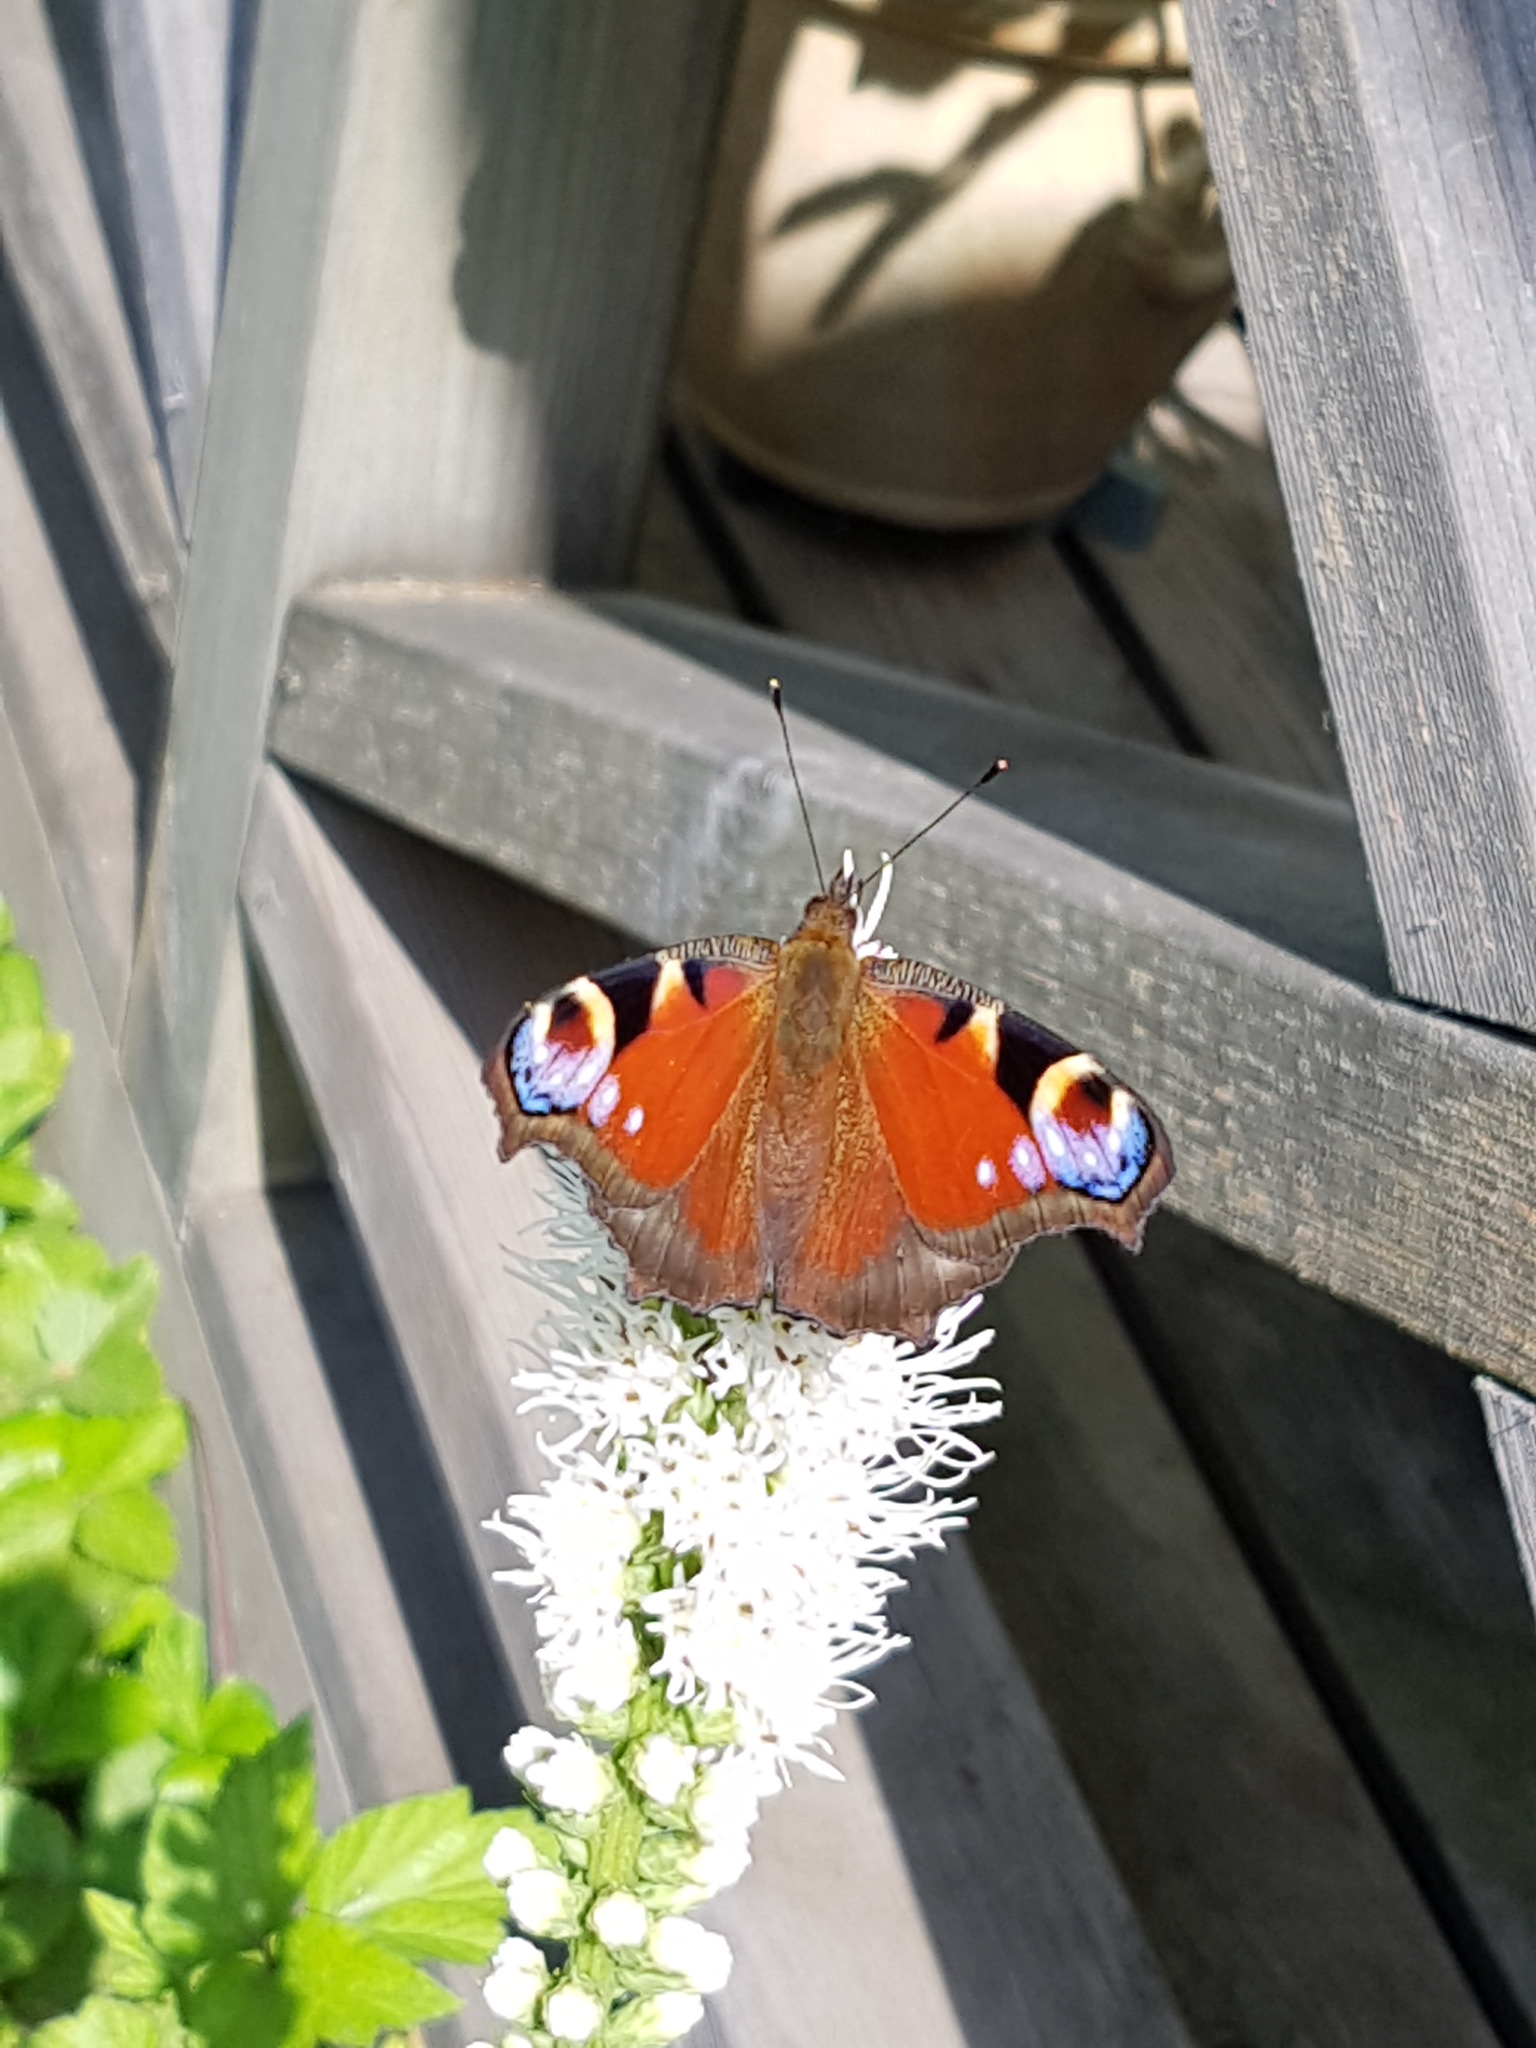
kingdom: Animalia
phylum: Arthropoda
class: Insecta
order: Lepidoptera
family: Nymphalidae
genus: Aglais
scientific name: Aglais io
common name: Peacock
